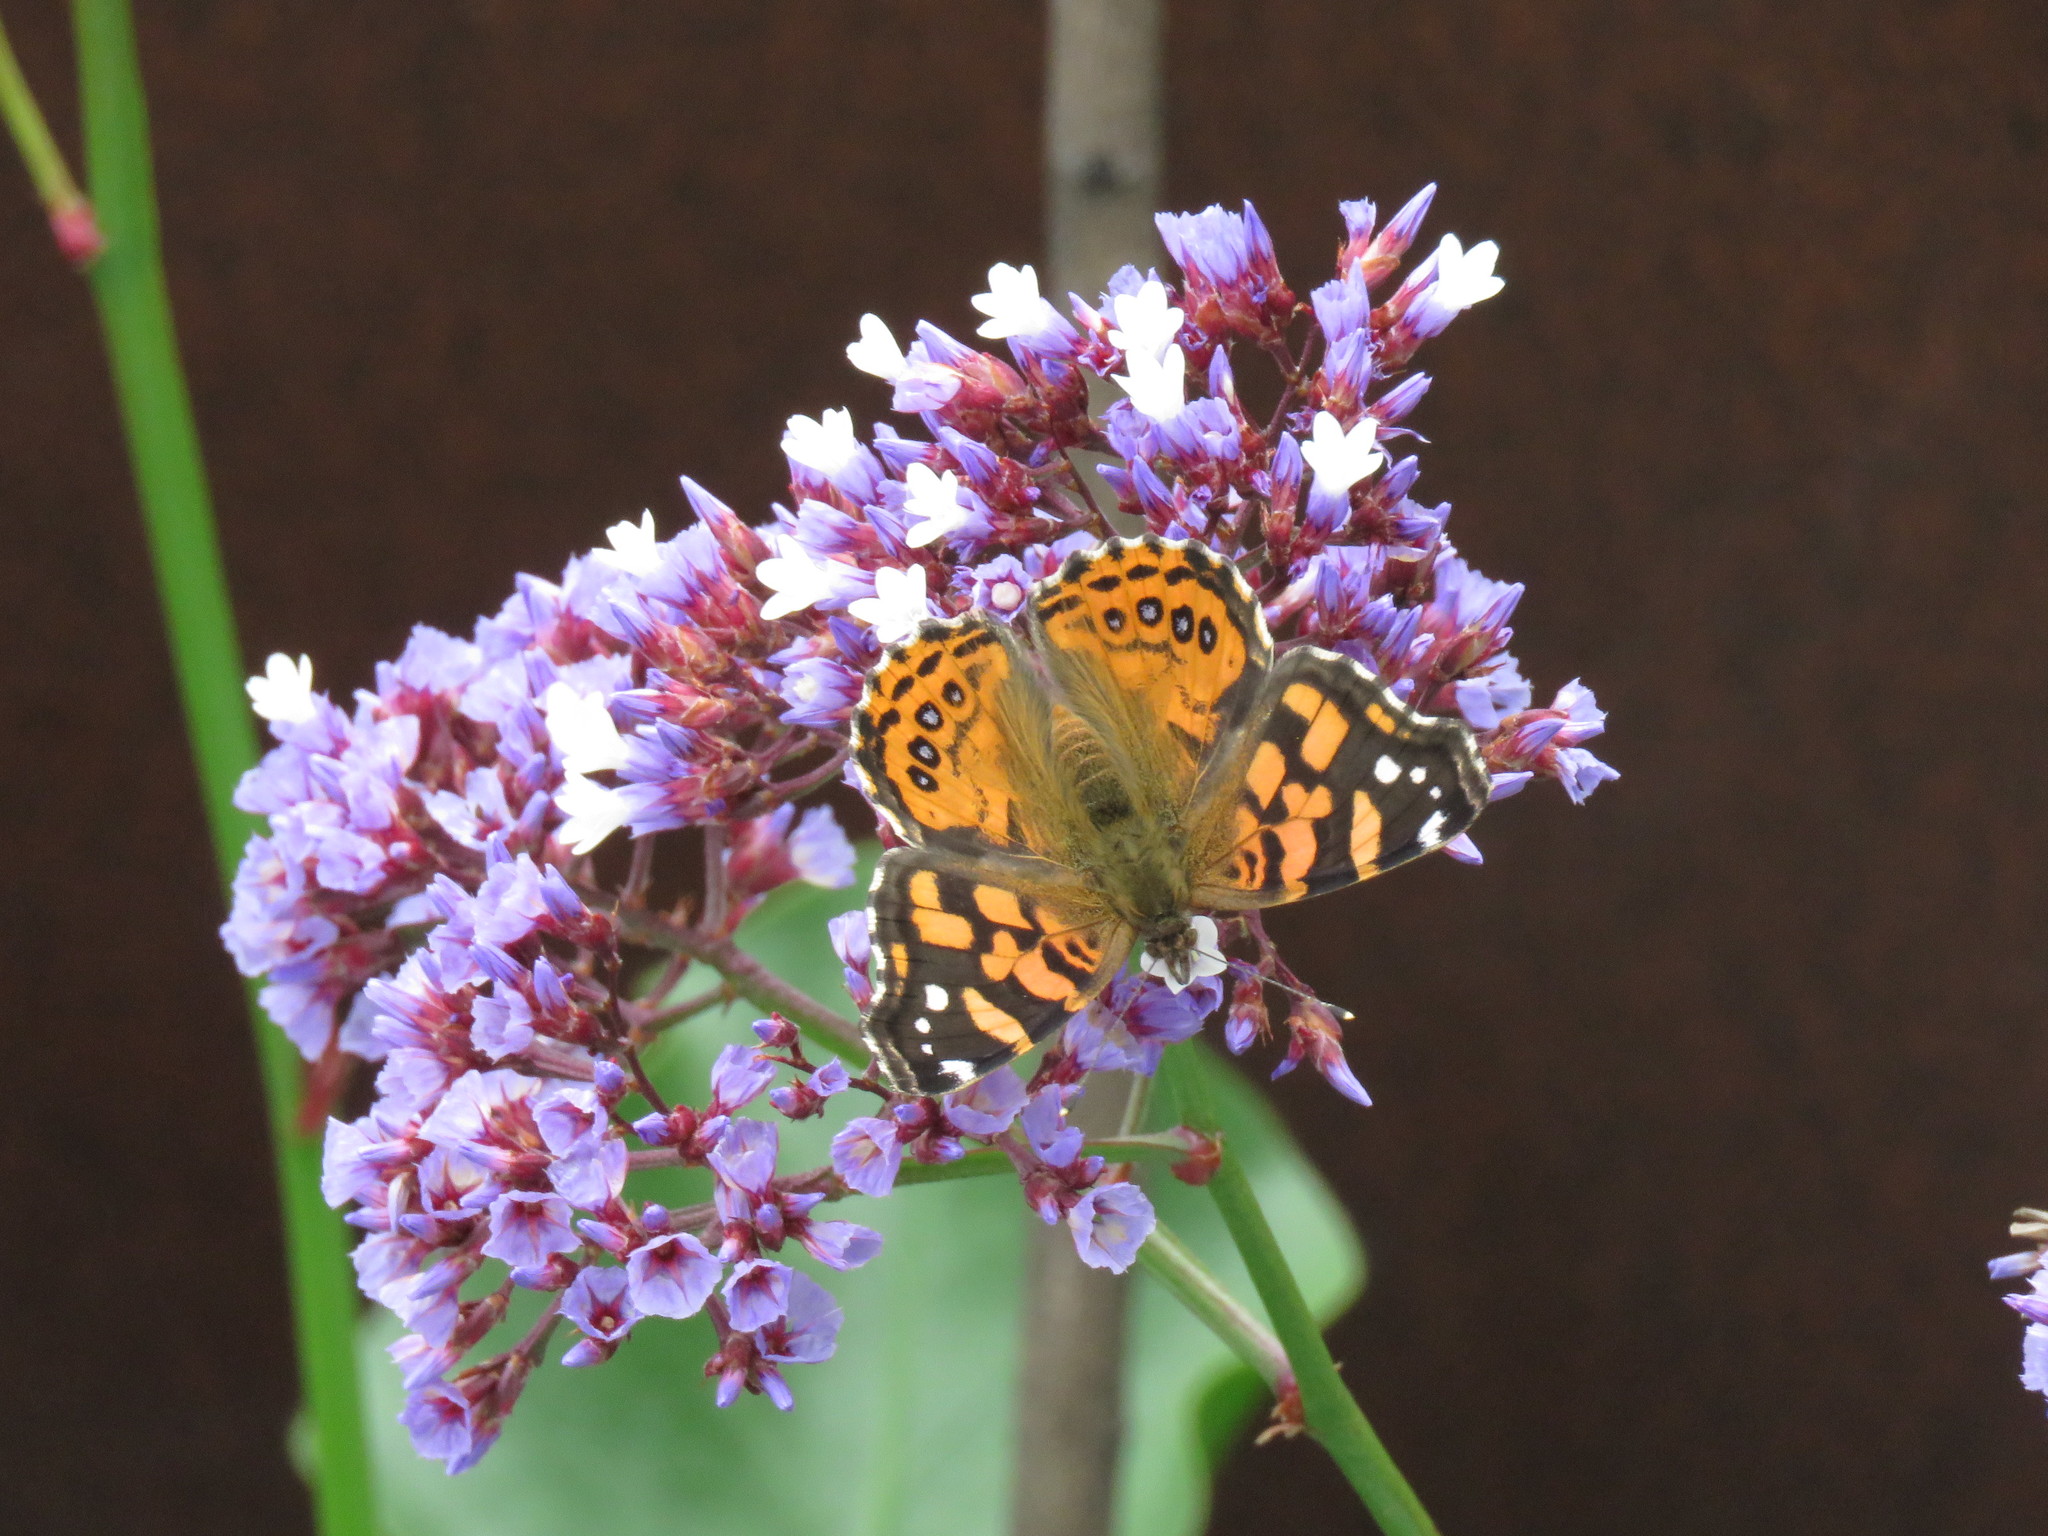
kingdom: Animalia
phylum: Arthropoda
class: Insecta
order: Lepidoptera
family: Nymphalidae
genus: Vanessa
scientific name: Vanessa carye
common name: Subtropical lady
